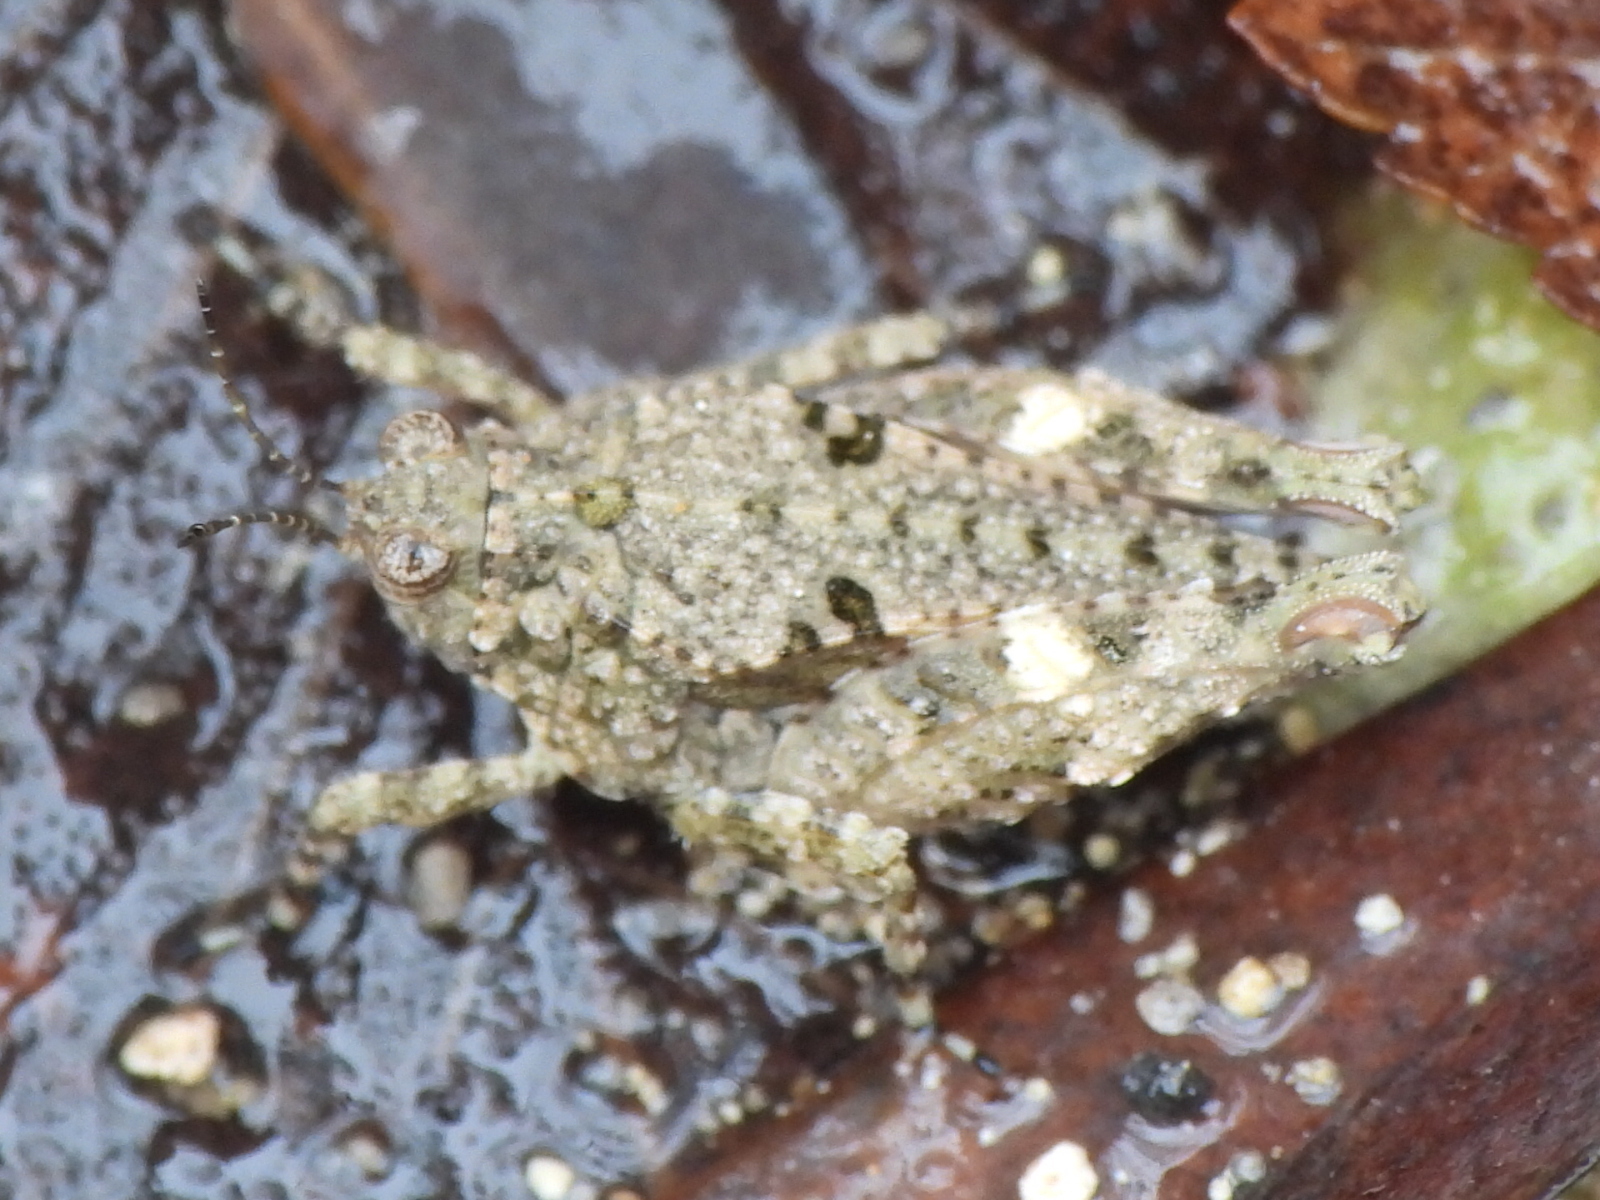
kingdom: Animalia
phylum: Arthropoda
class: Insecta
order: Orthoptera
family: Tetrigidae
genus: Paratettix
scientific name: Paratettix mexicanus
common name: Mexican pygmy grasshopper
